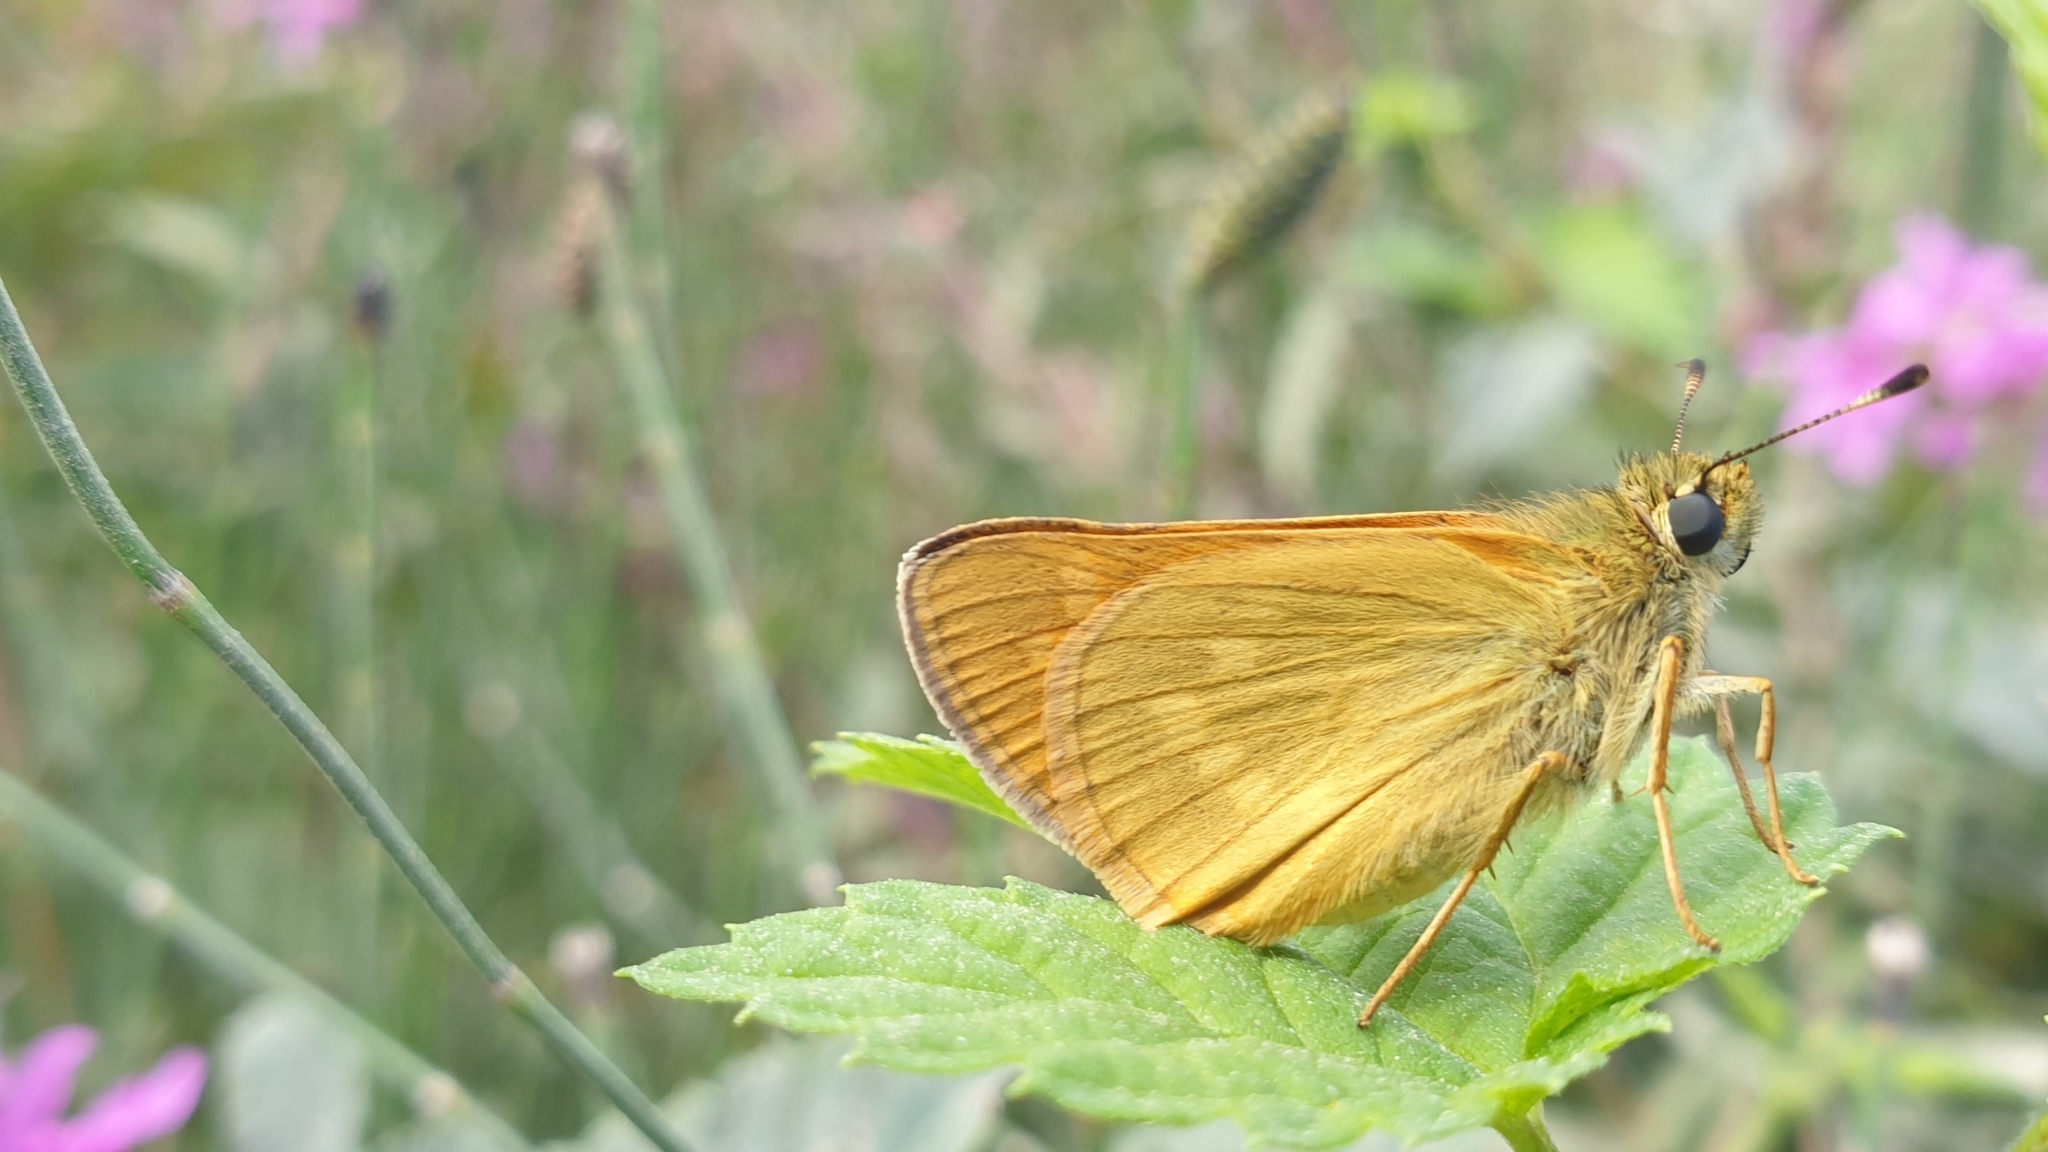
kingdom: Animalia
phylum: Arthropoda
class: Insecta
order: Lepidoptera
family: Hesperiidae
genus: Ochlodes
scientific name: Ochlodes venata
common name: Large skipper
